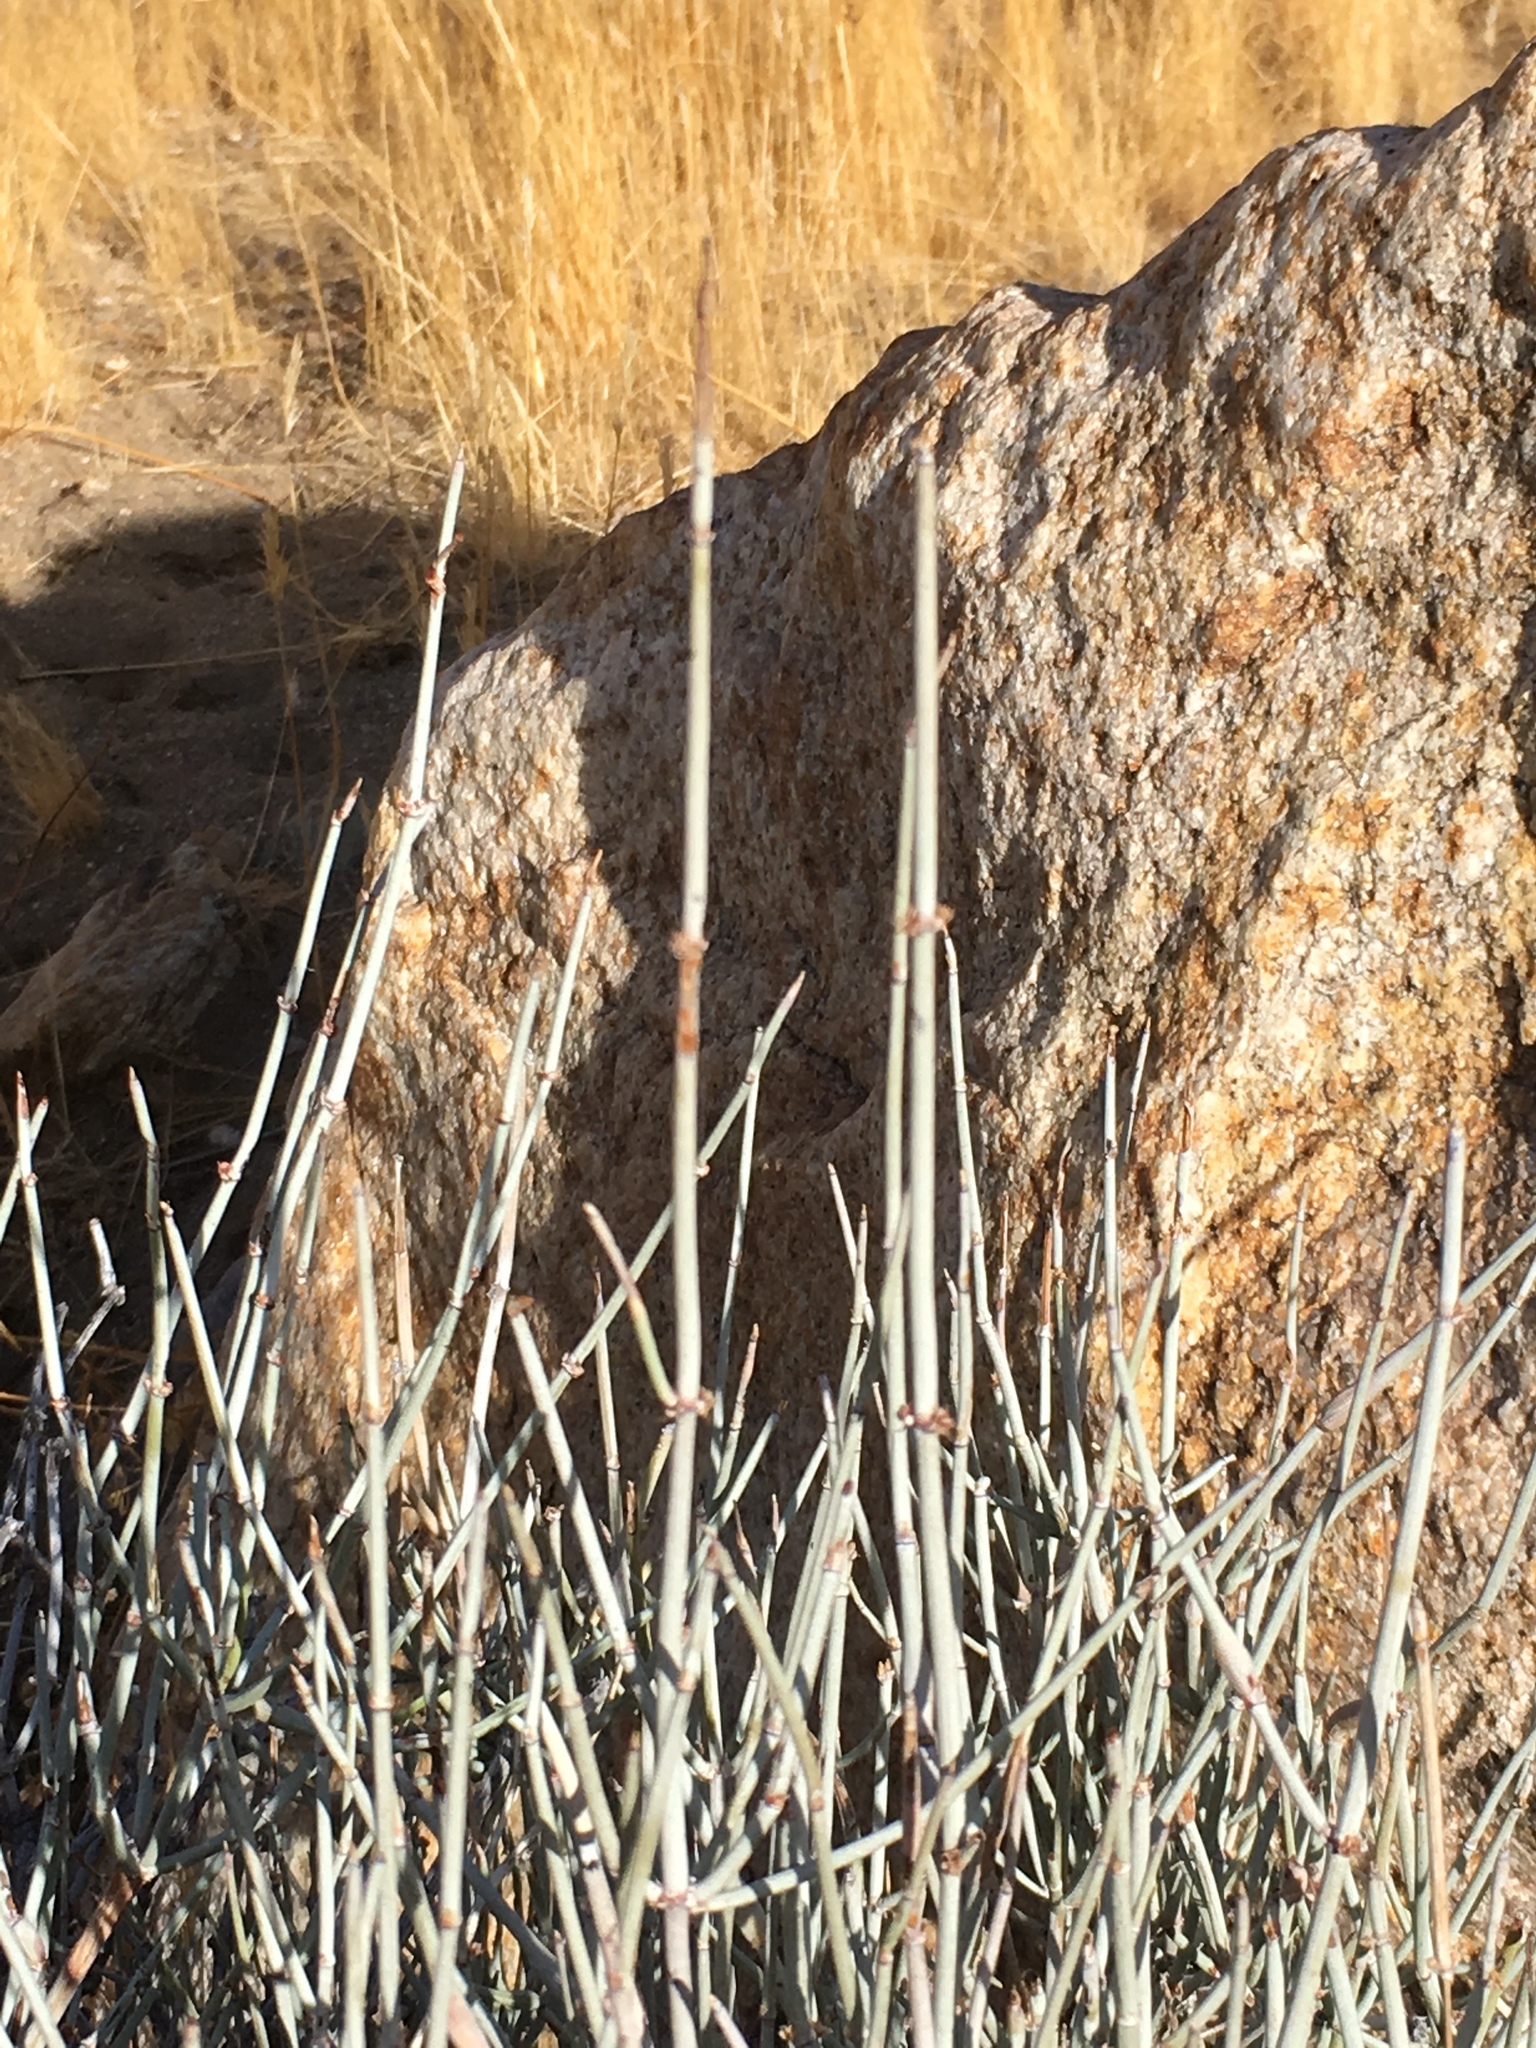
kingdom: Plantae
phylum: Tracheophyta
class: Gnetopsida
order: Ephedrales
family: Ephedraceae
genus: Ephedra
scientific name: Ephedra aspera
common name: Boundary ephedra
